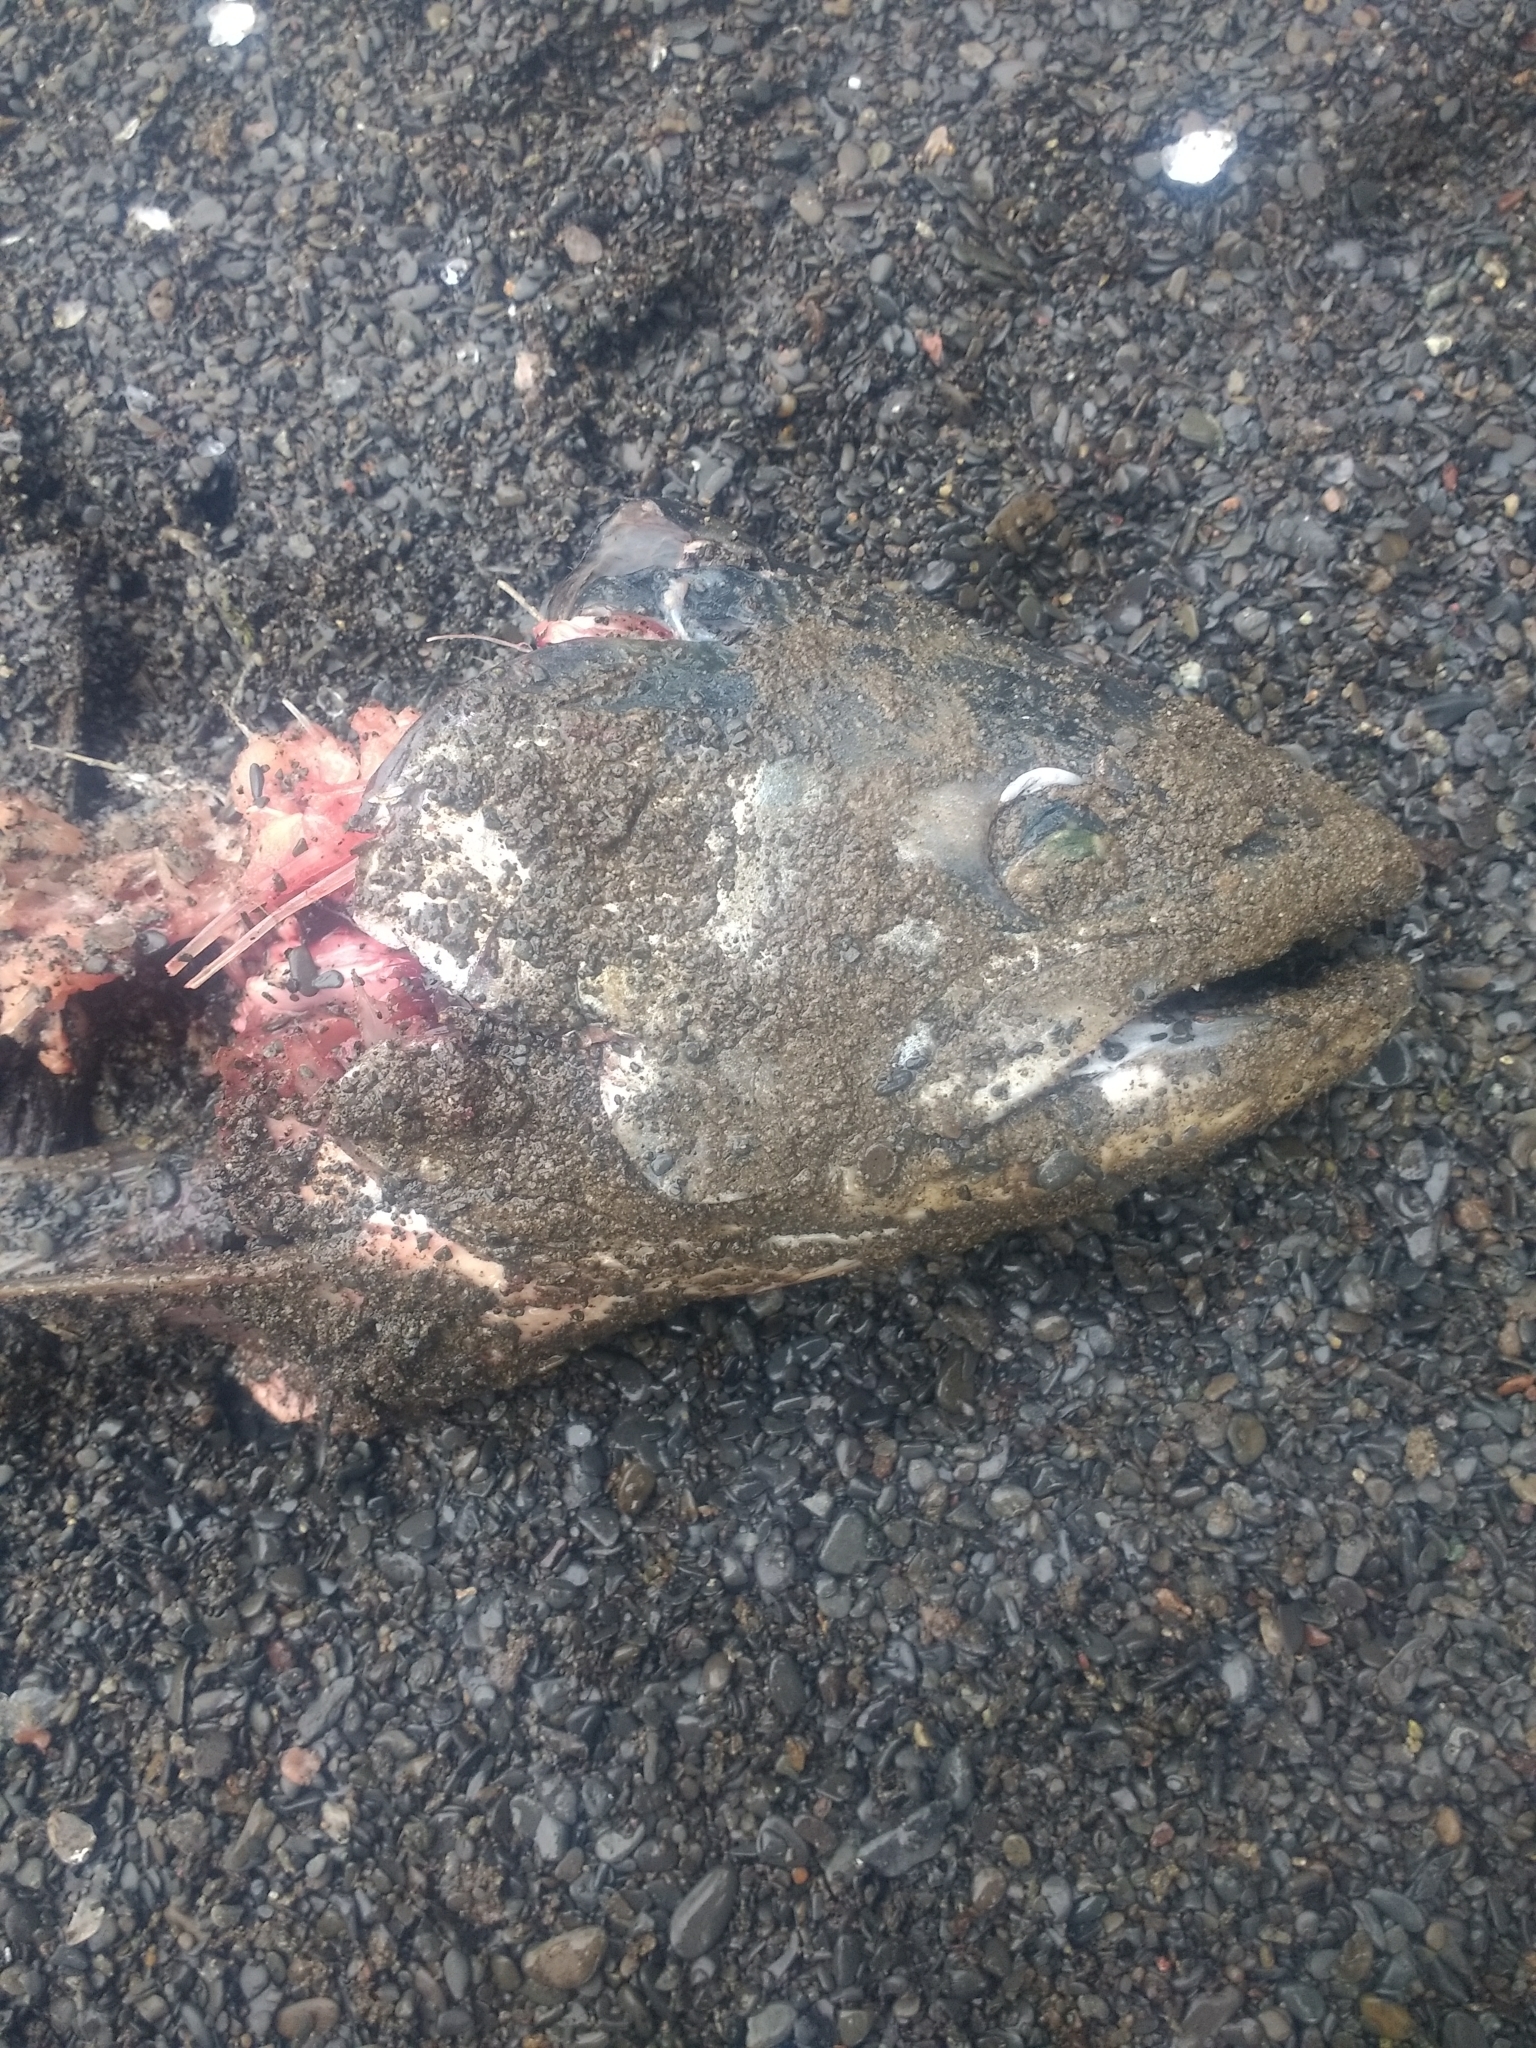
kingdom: Animalia
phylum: Chordata
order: Salmoniformes
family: Salmonidae
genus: Oncorhynchus
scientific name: Oncorhynchus mykiss
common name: Rainbow trout
